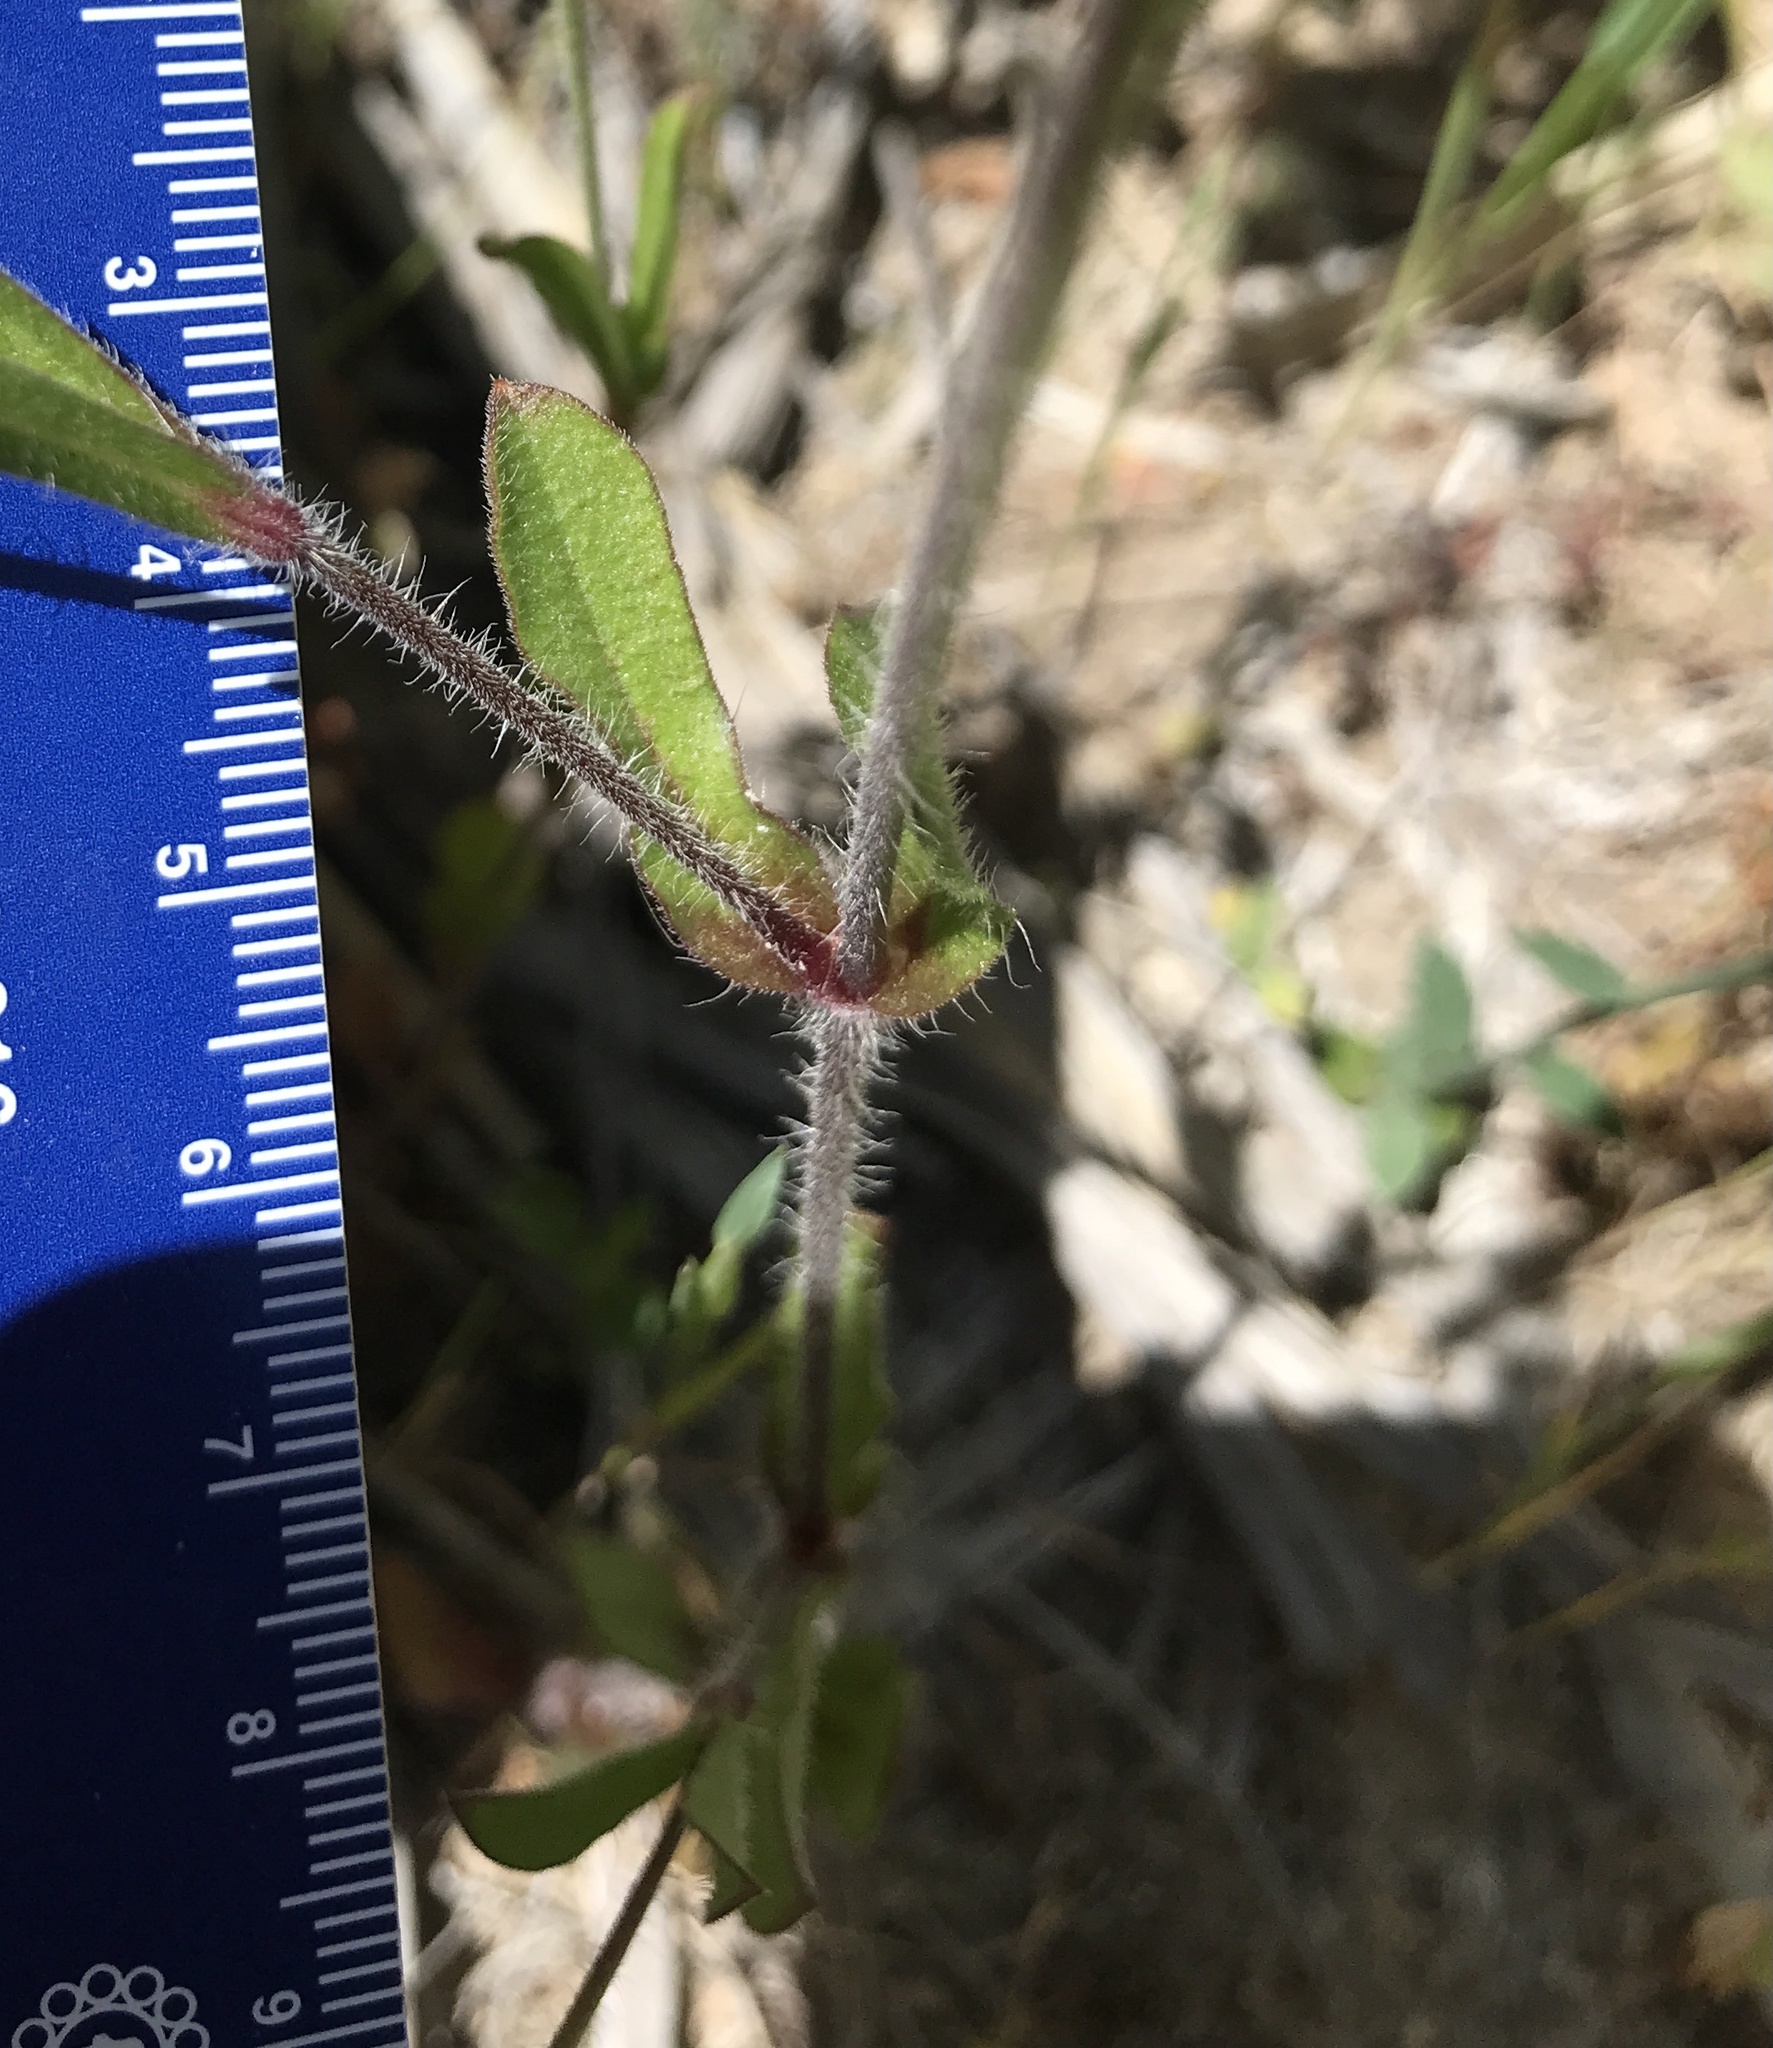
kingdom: Plantae
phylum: Tracheophyta
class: Magnoliopsida
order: Caryophyllales
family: Caryophyllaceae
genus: Silene
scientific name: Silene gallica
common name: Small-flowered catchfly
